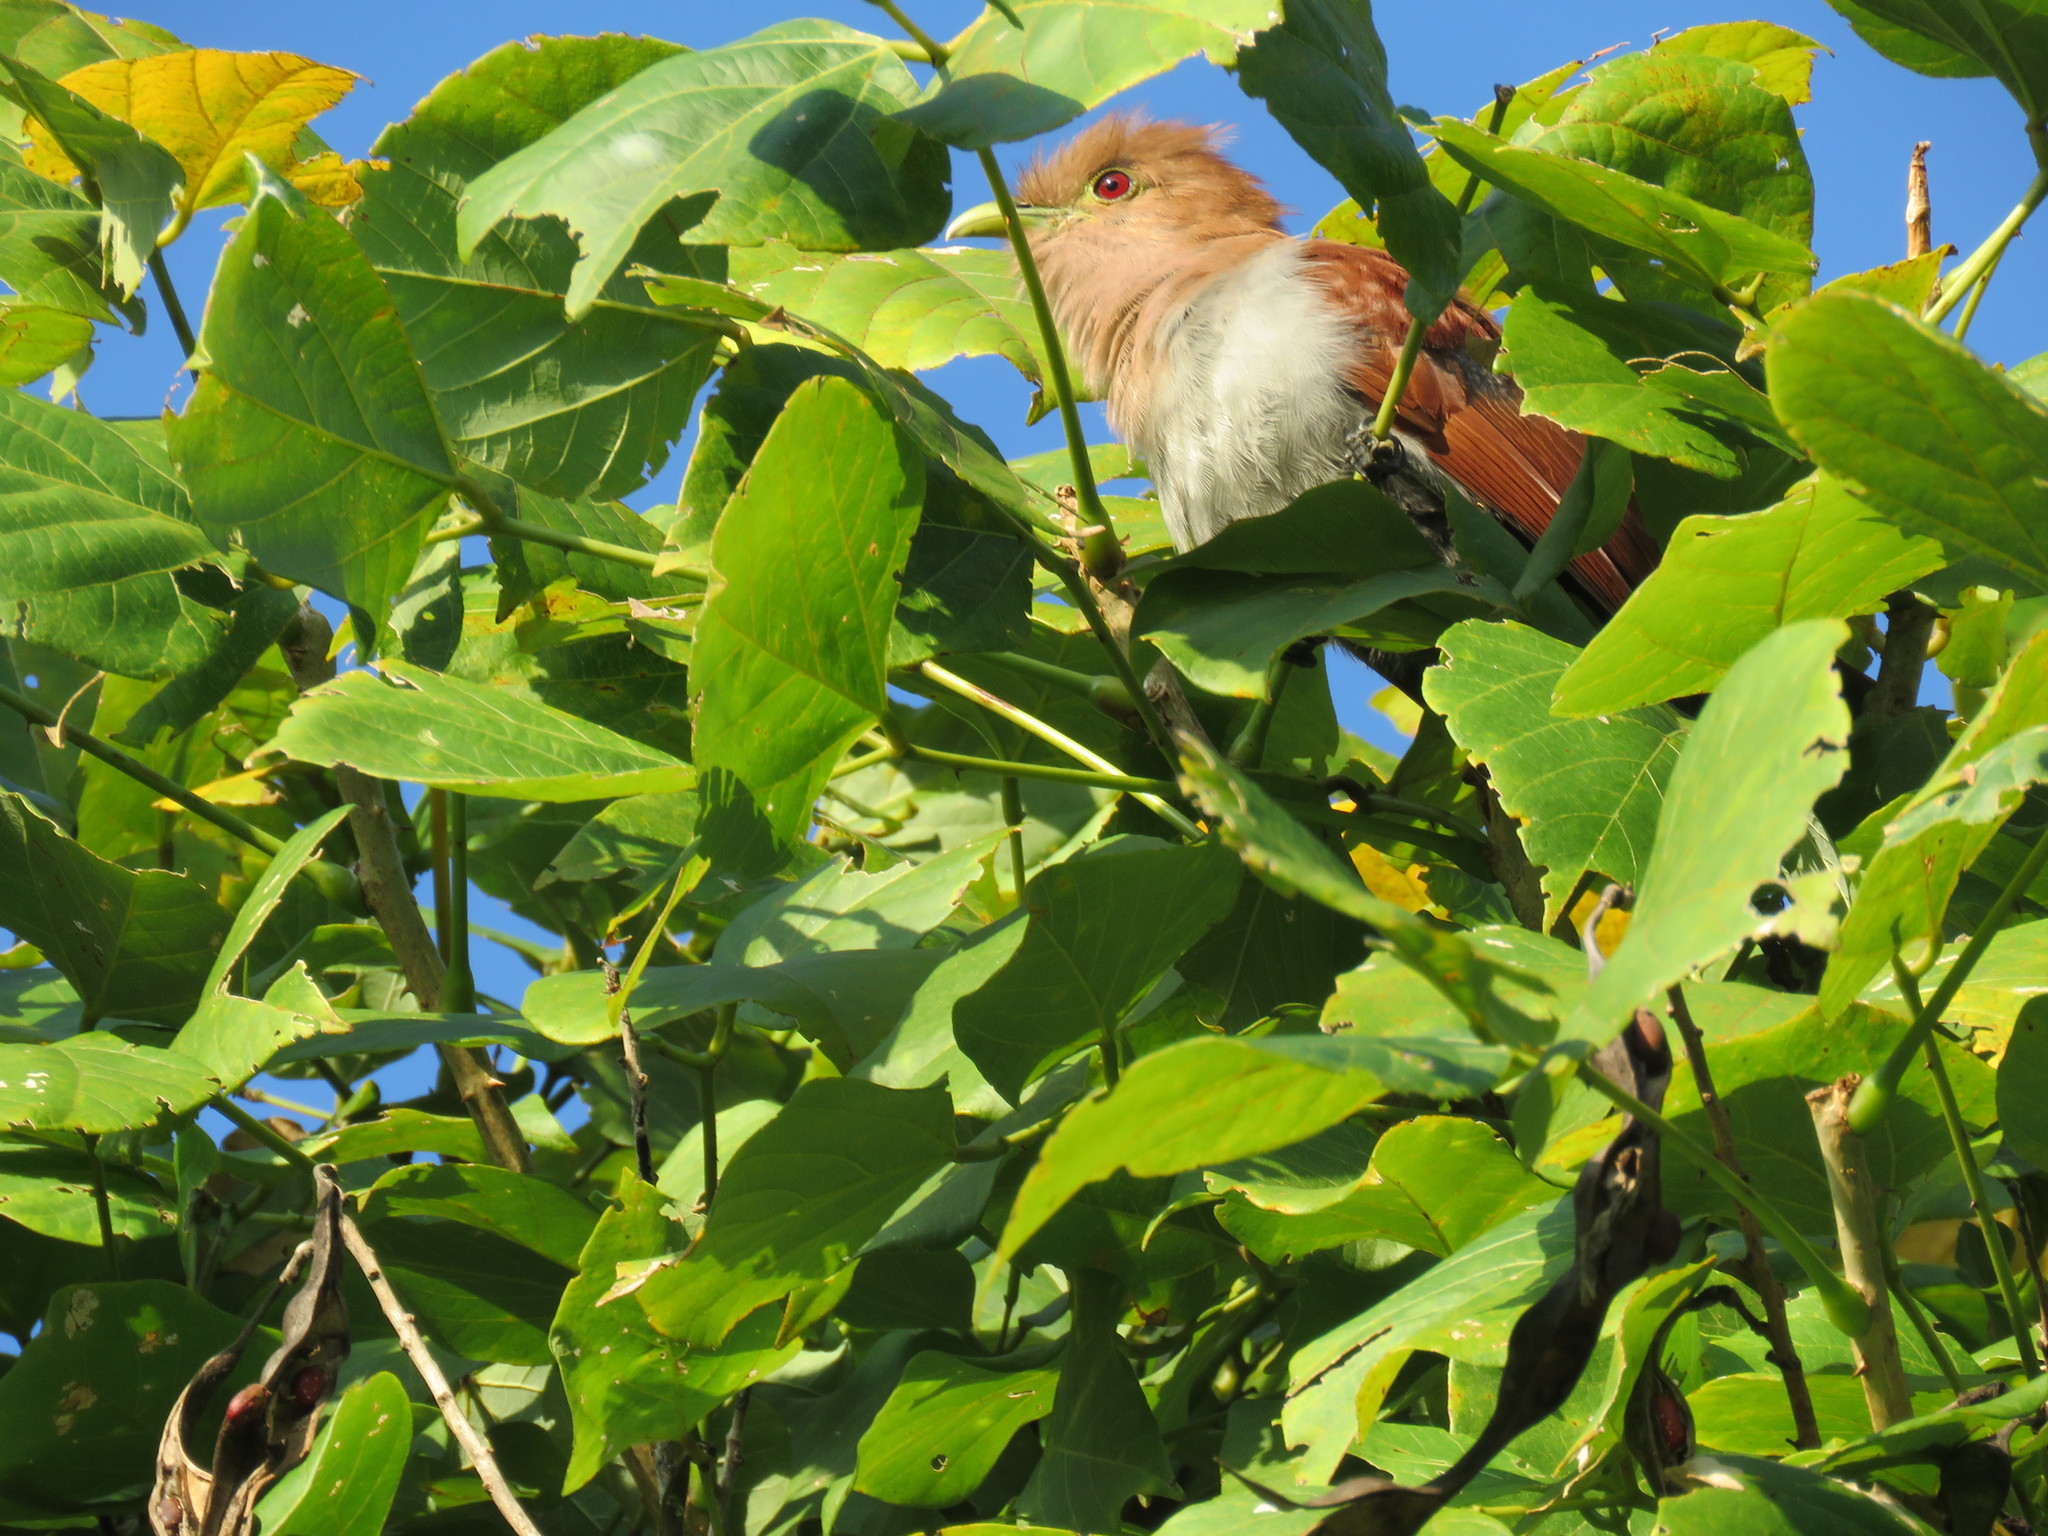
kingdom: Animalia
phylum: Chordata
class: Aves
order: Cuculiformes
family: Cuculidae
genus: Piaya
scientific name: Piaya cayana
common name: Squirrel cuckoo
